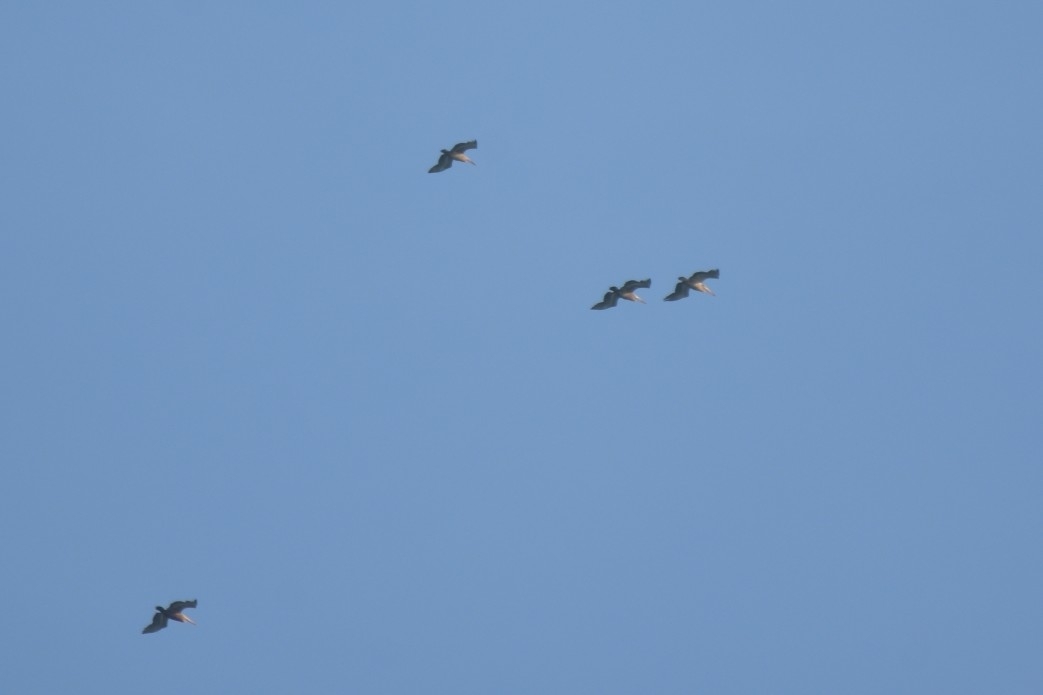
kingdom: Animalia
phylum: Chordata
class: Aves
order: Pelecaniformes
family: Pelecanidae
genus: Pelecanus
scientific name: Pelecanus philippensis
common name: Spot-billed pelican
